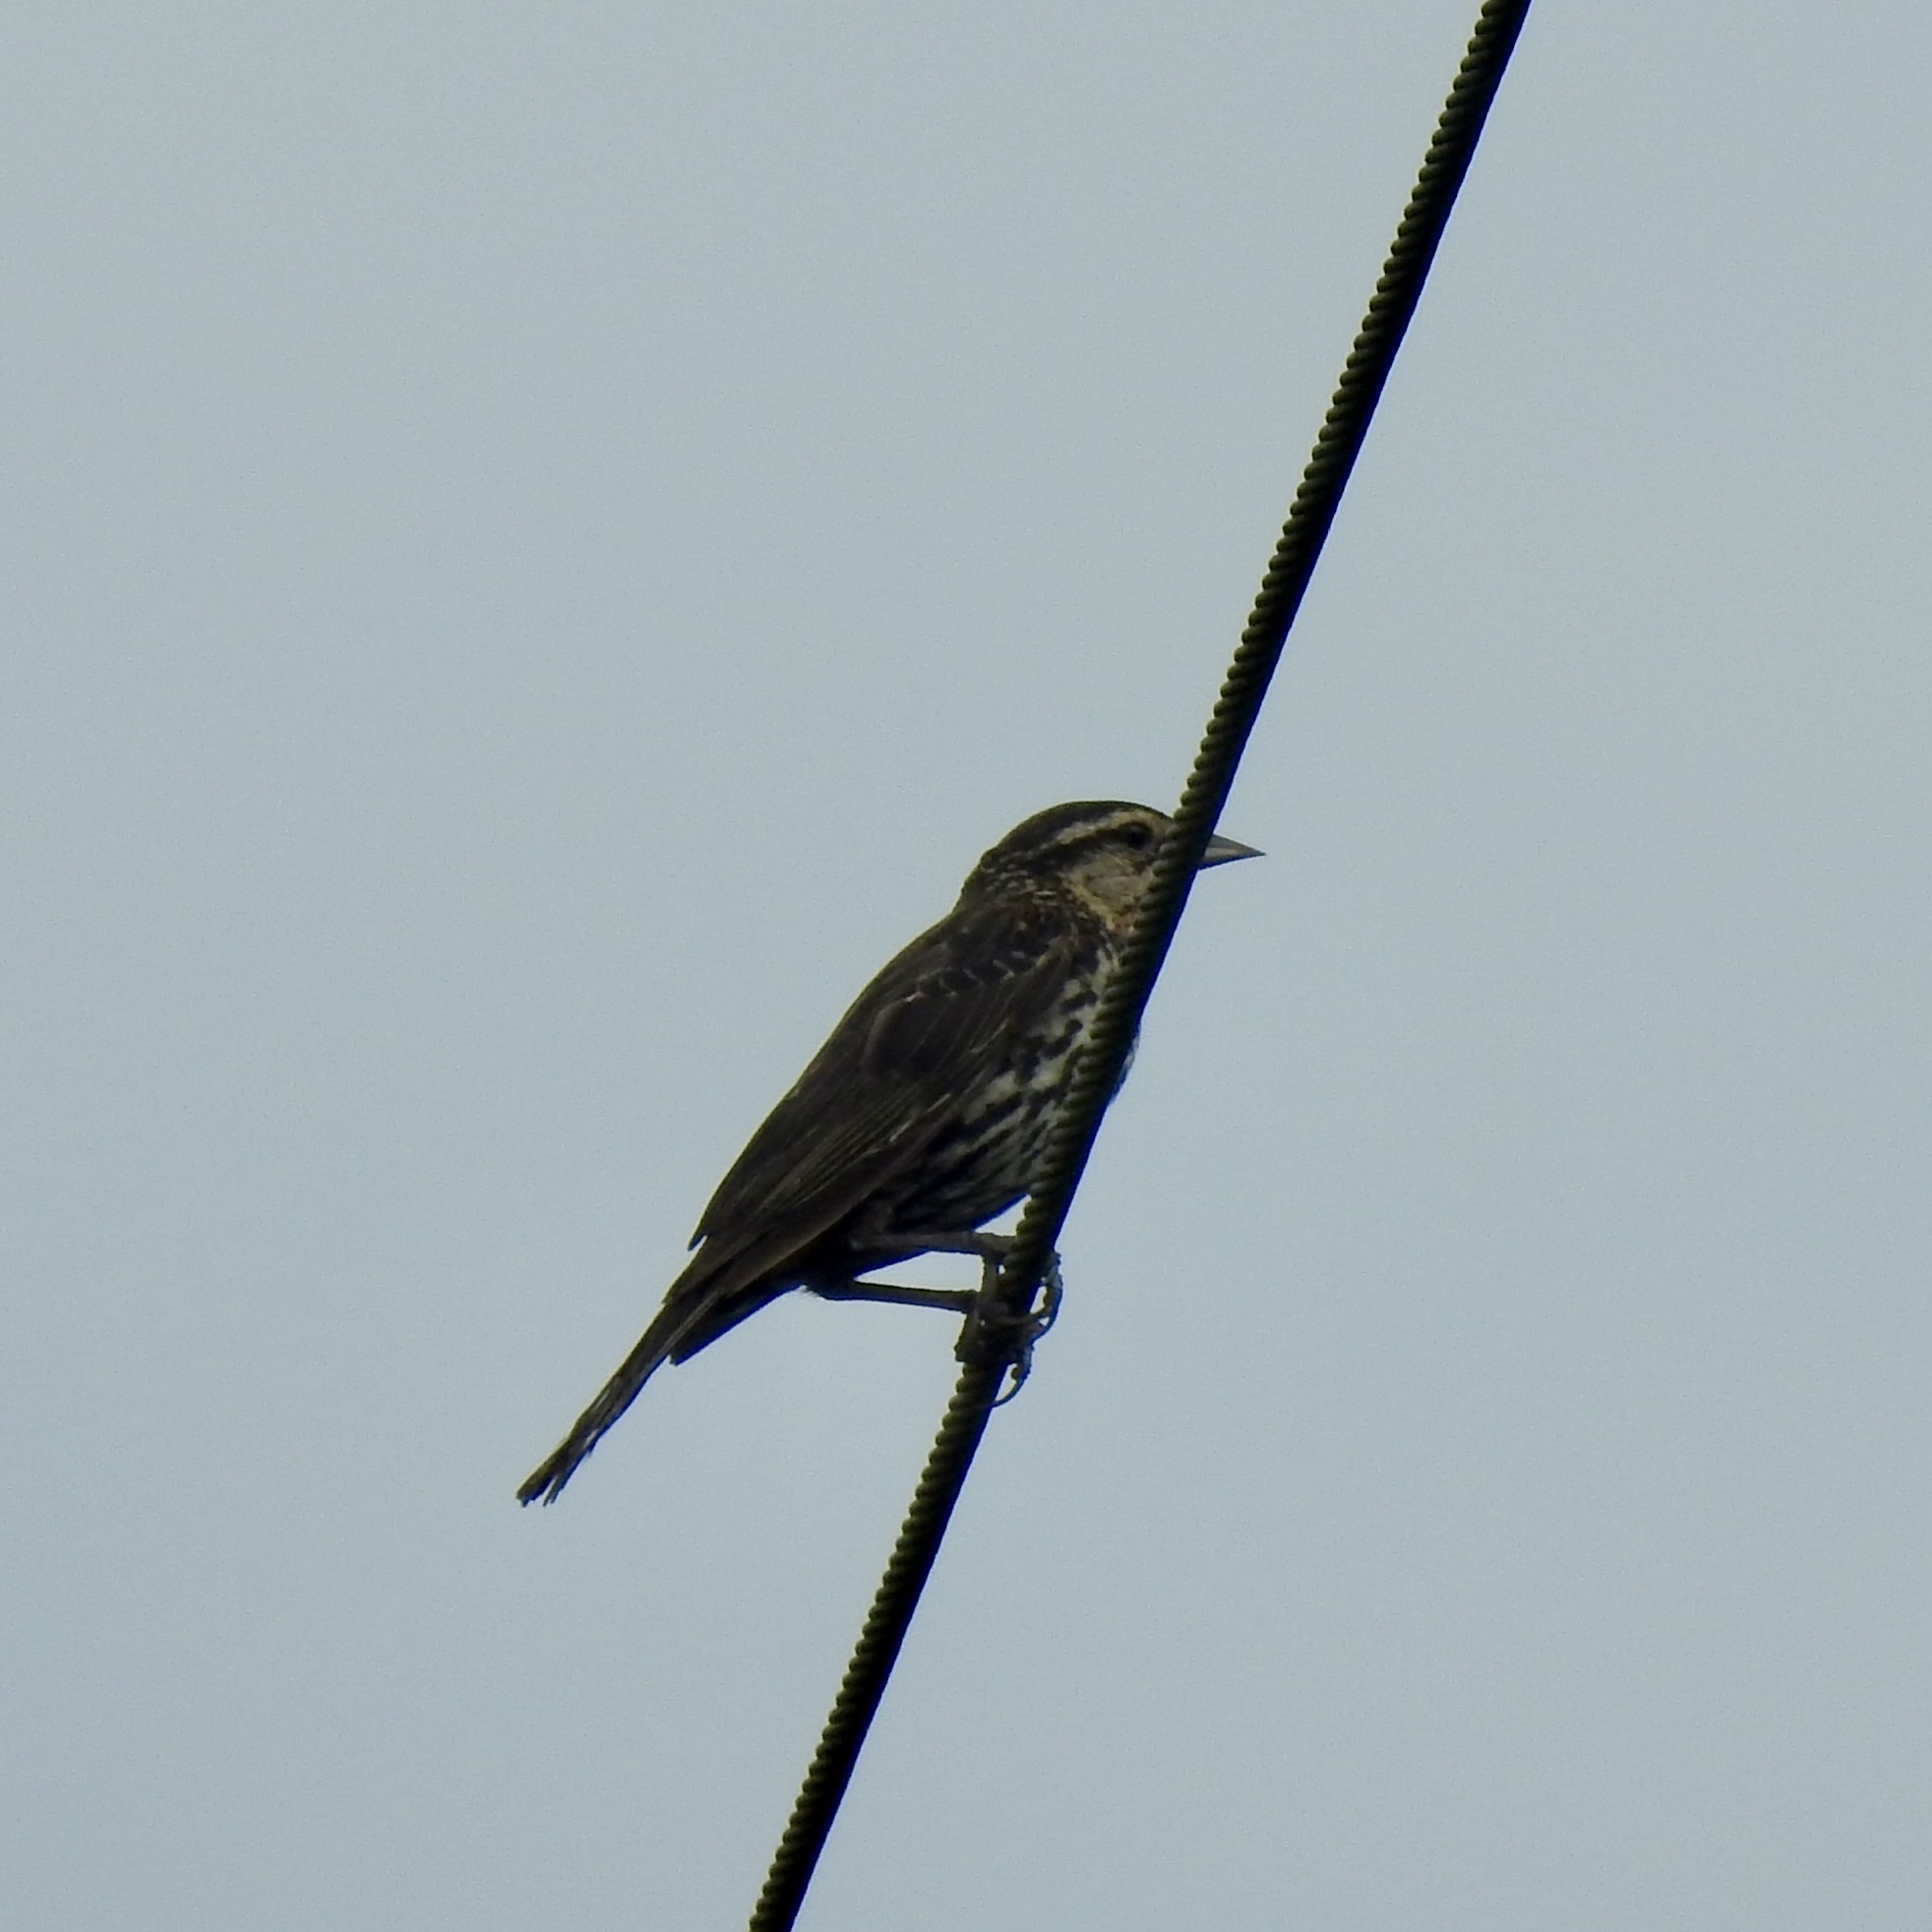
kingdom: Animalia
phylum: Chordata
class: Aves
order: Passeriformes
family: Icteridae
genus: Agelaius
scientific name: Agelaius phoeniceus
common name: Red-winged blackbird
